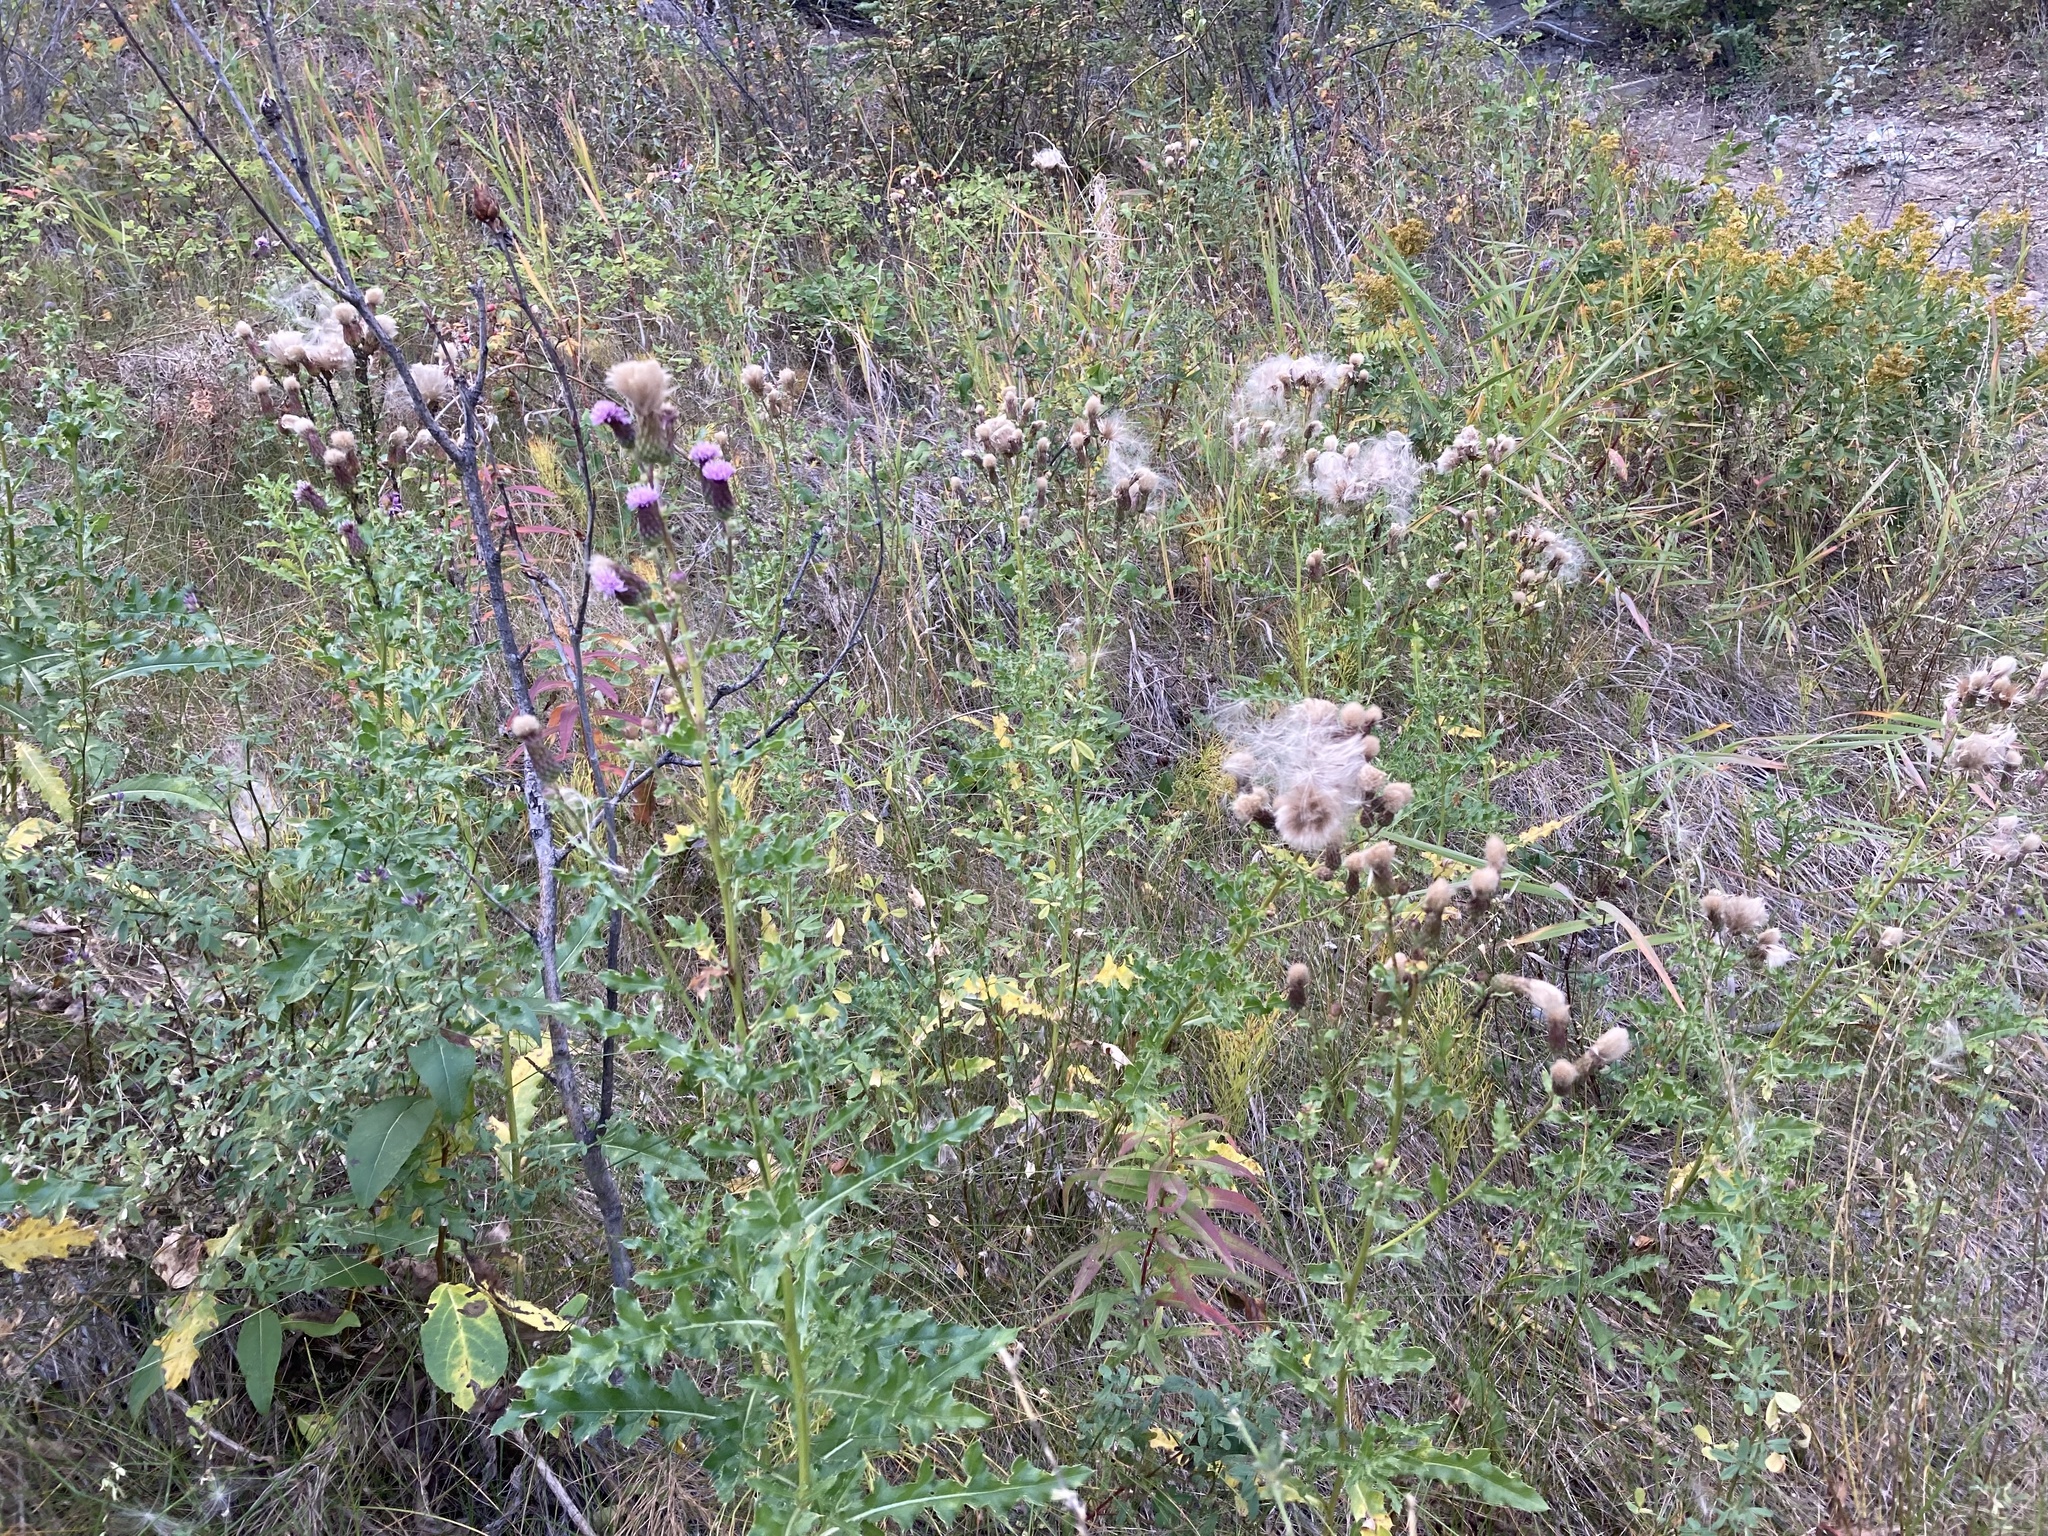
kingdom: Plantae
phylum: Tracheophyta
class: Magnoliopsida
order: Asterales
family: Asteraceae
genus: Cirsium
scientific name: Cirsium arvense
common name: Creeping thistle
